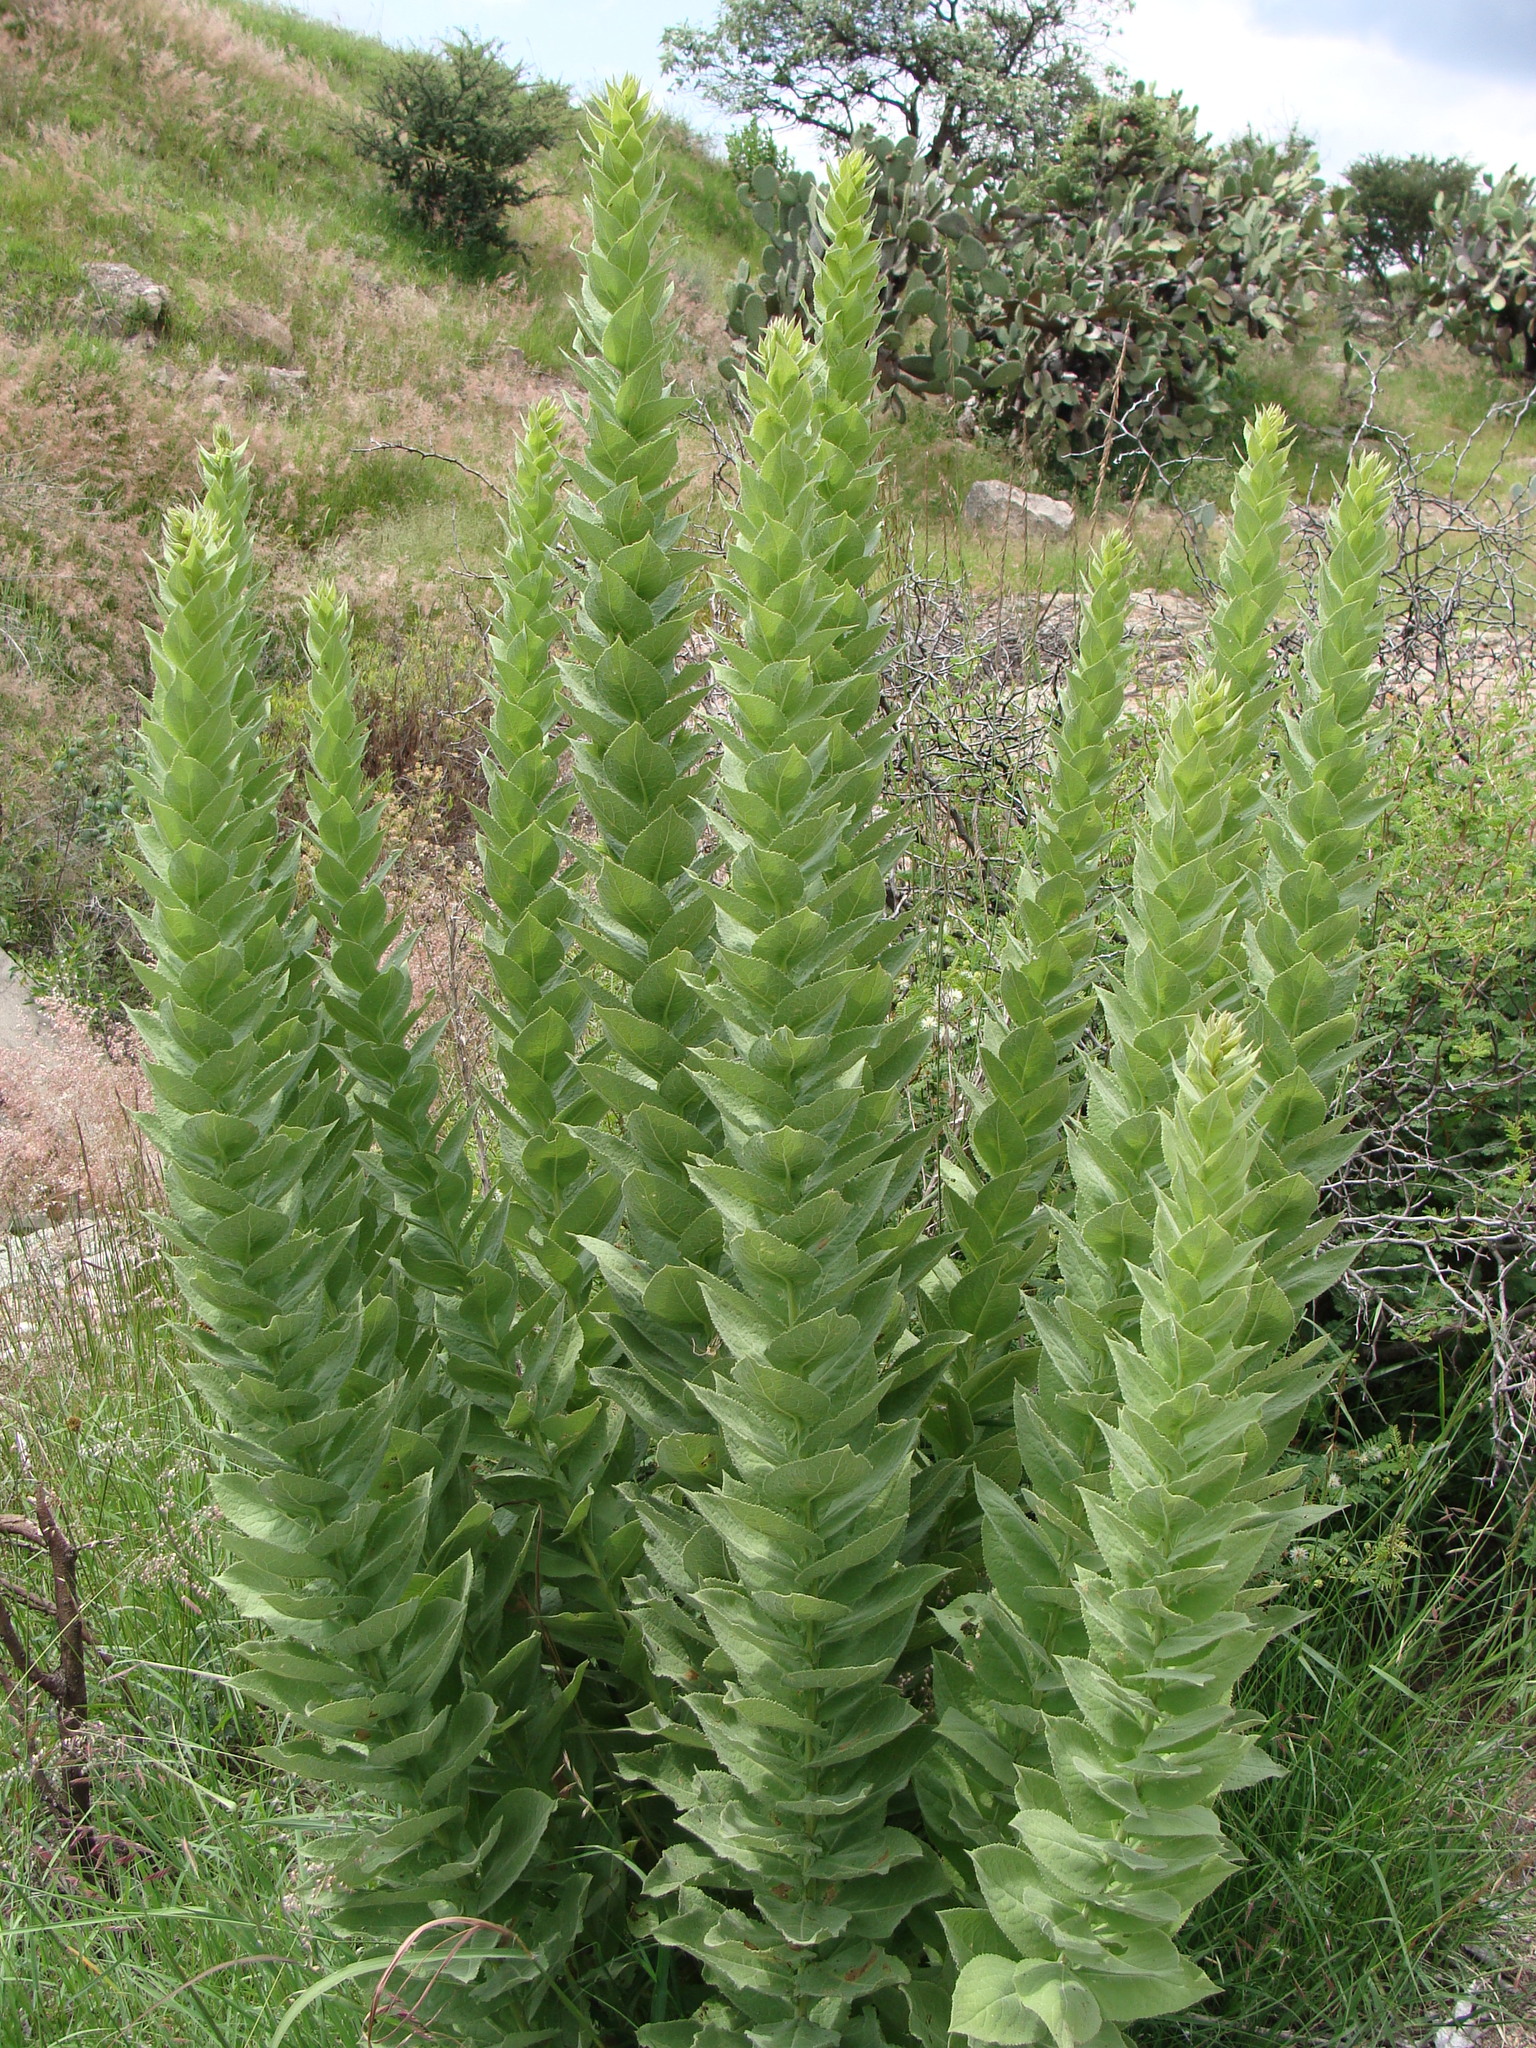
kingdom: Plantae
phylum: Tracheophyta
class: Magnoliopsida
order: Asterales
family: Asteraceae
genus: Acourtia
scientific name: Acourtia moschata
